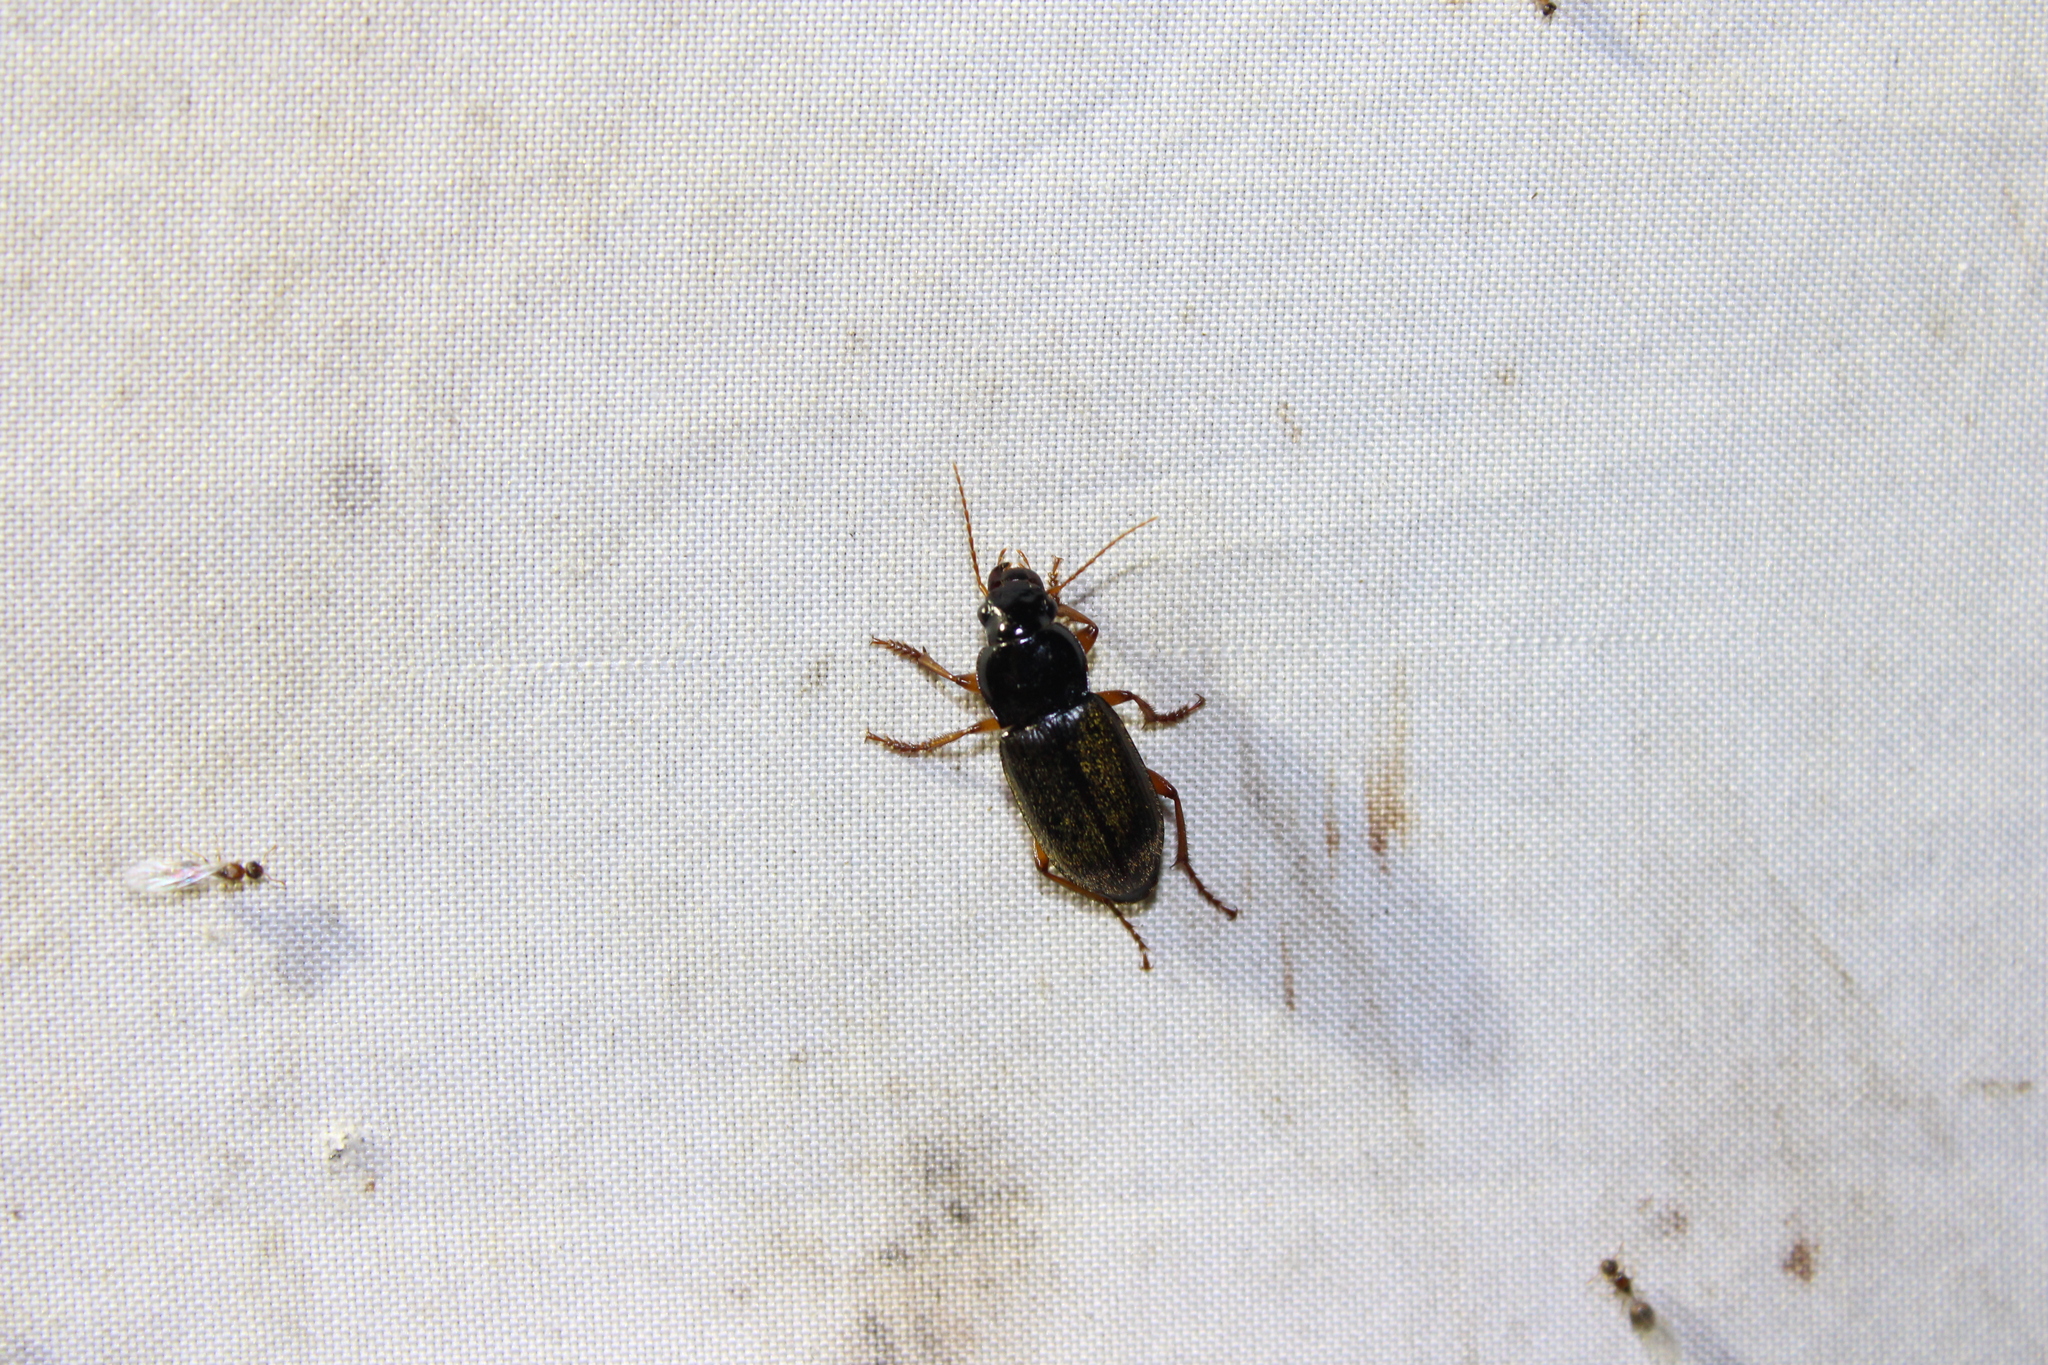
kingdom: Animalia
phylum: Arthropoda
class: Insecta
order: Coleoptera
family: Carabidae
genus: Harpalus
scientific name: Harpalus rufipes
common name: Strawberry harp ground beetle
